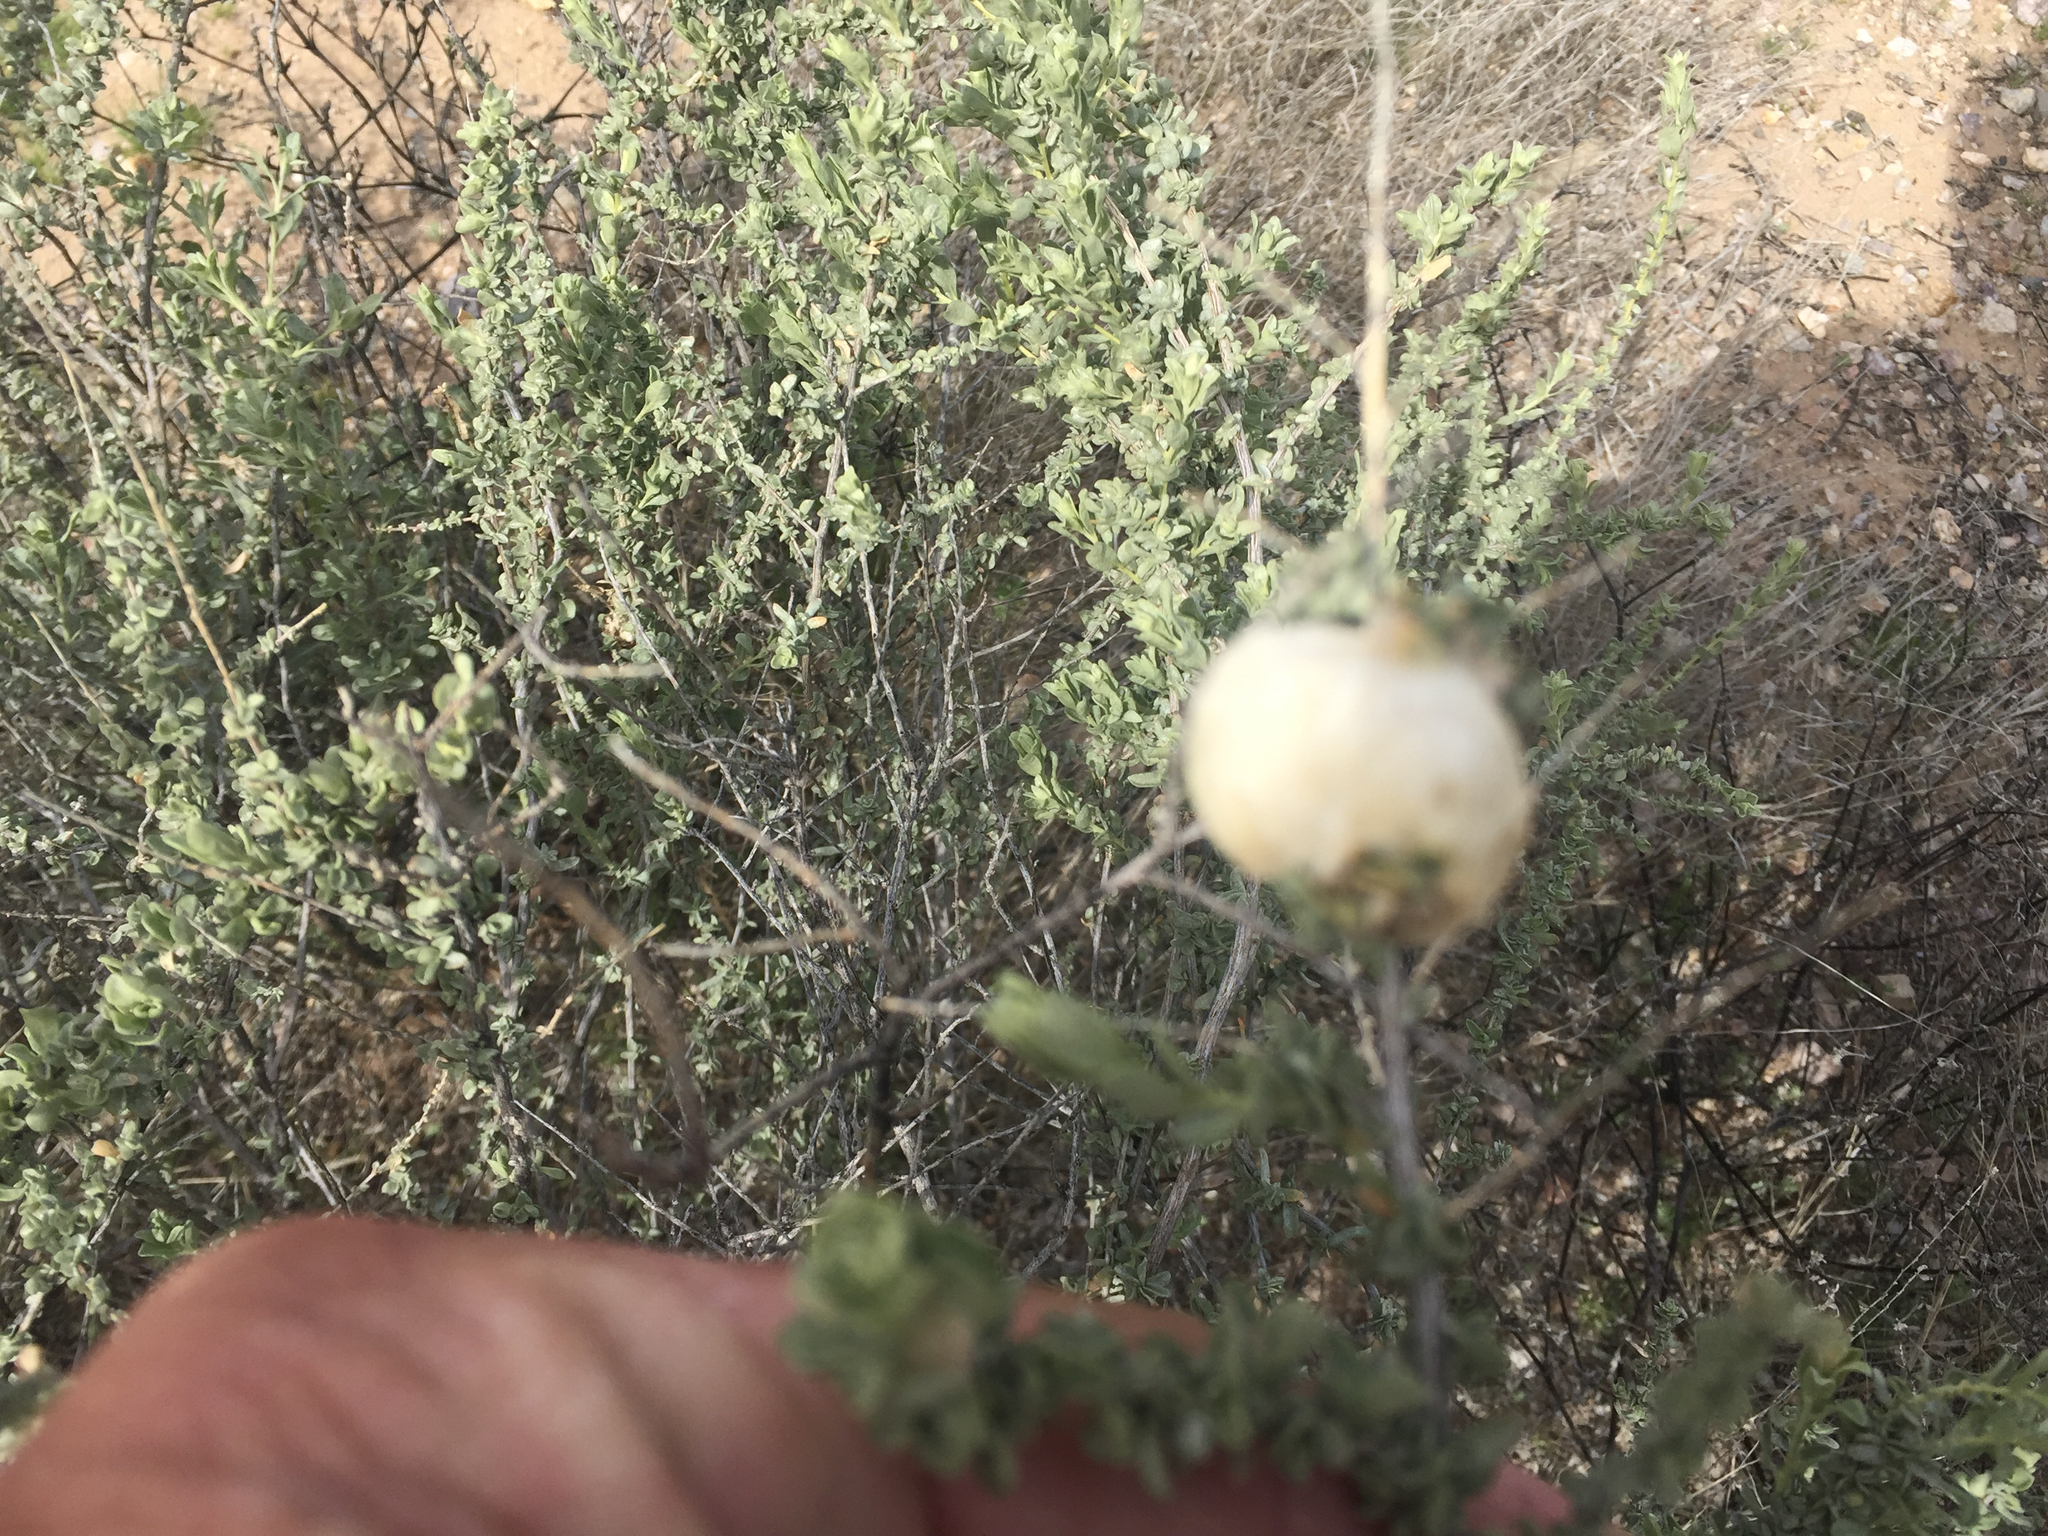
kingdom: Animalia
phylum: Arthropoda
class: Insecta
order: Diptera
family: Cecidomyiidae
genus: Asphondylia
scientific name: Asphondylia floccosa
